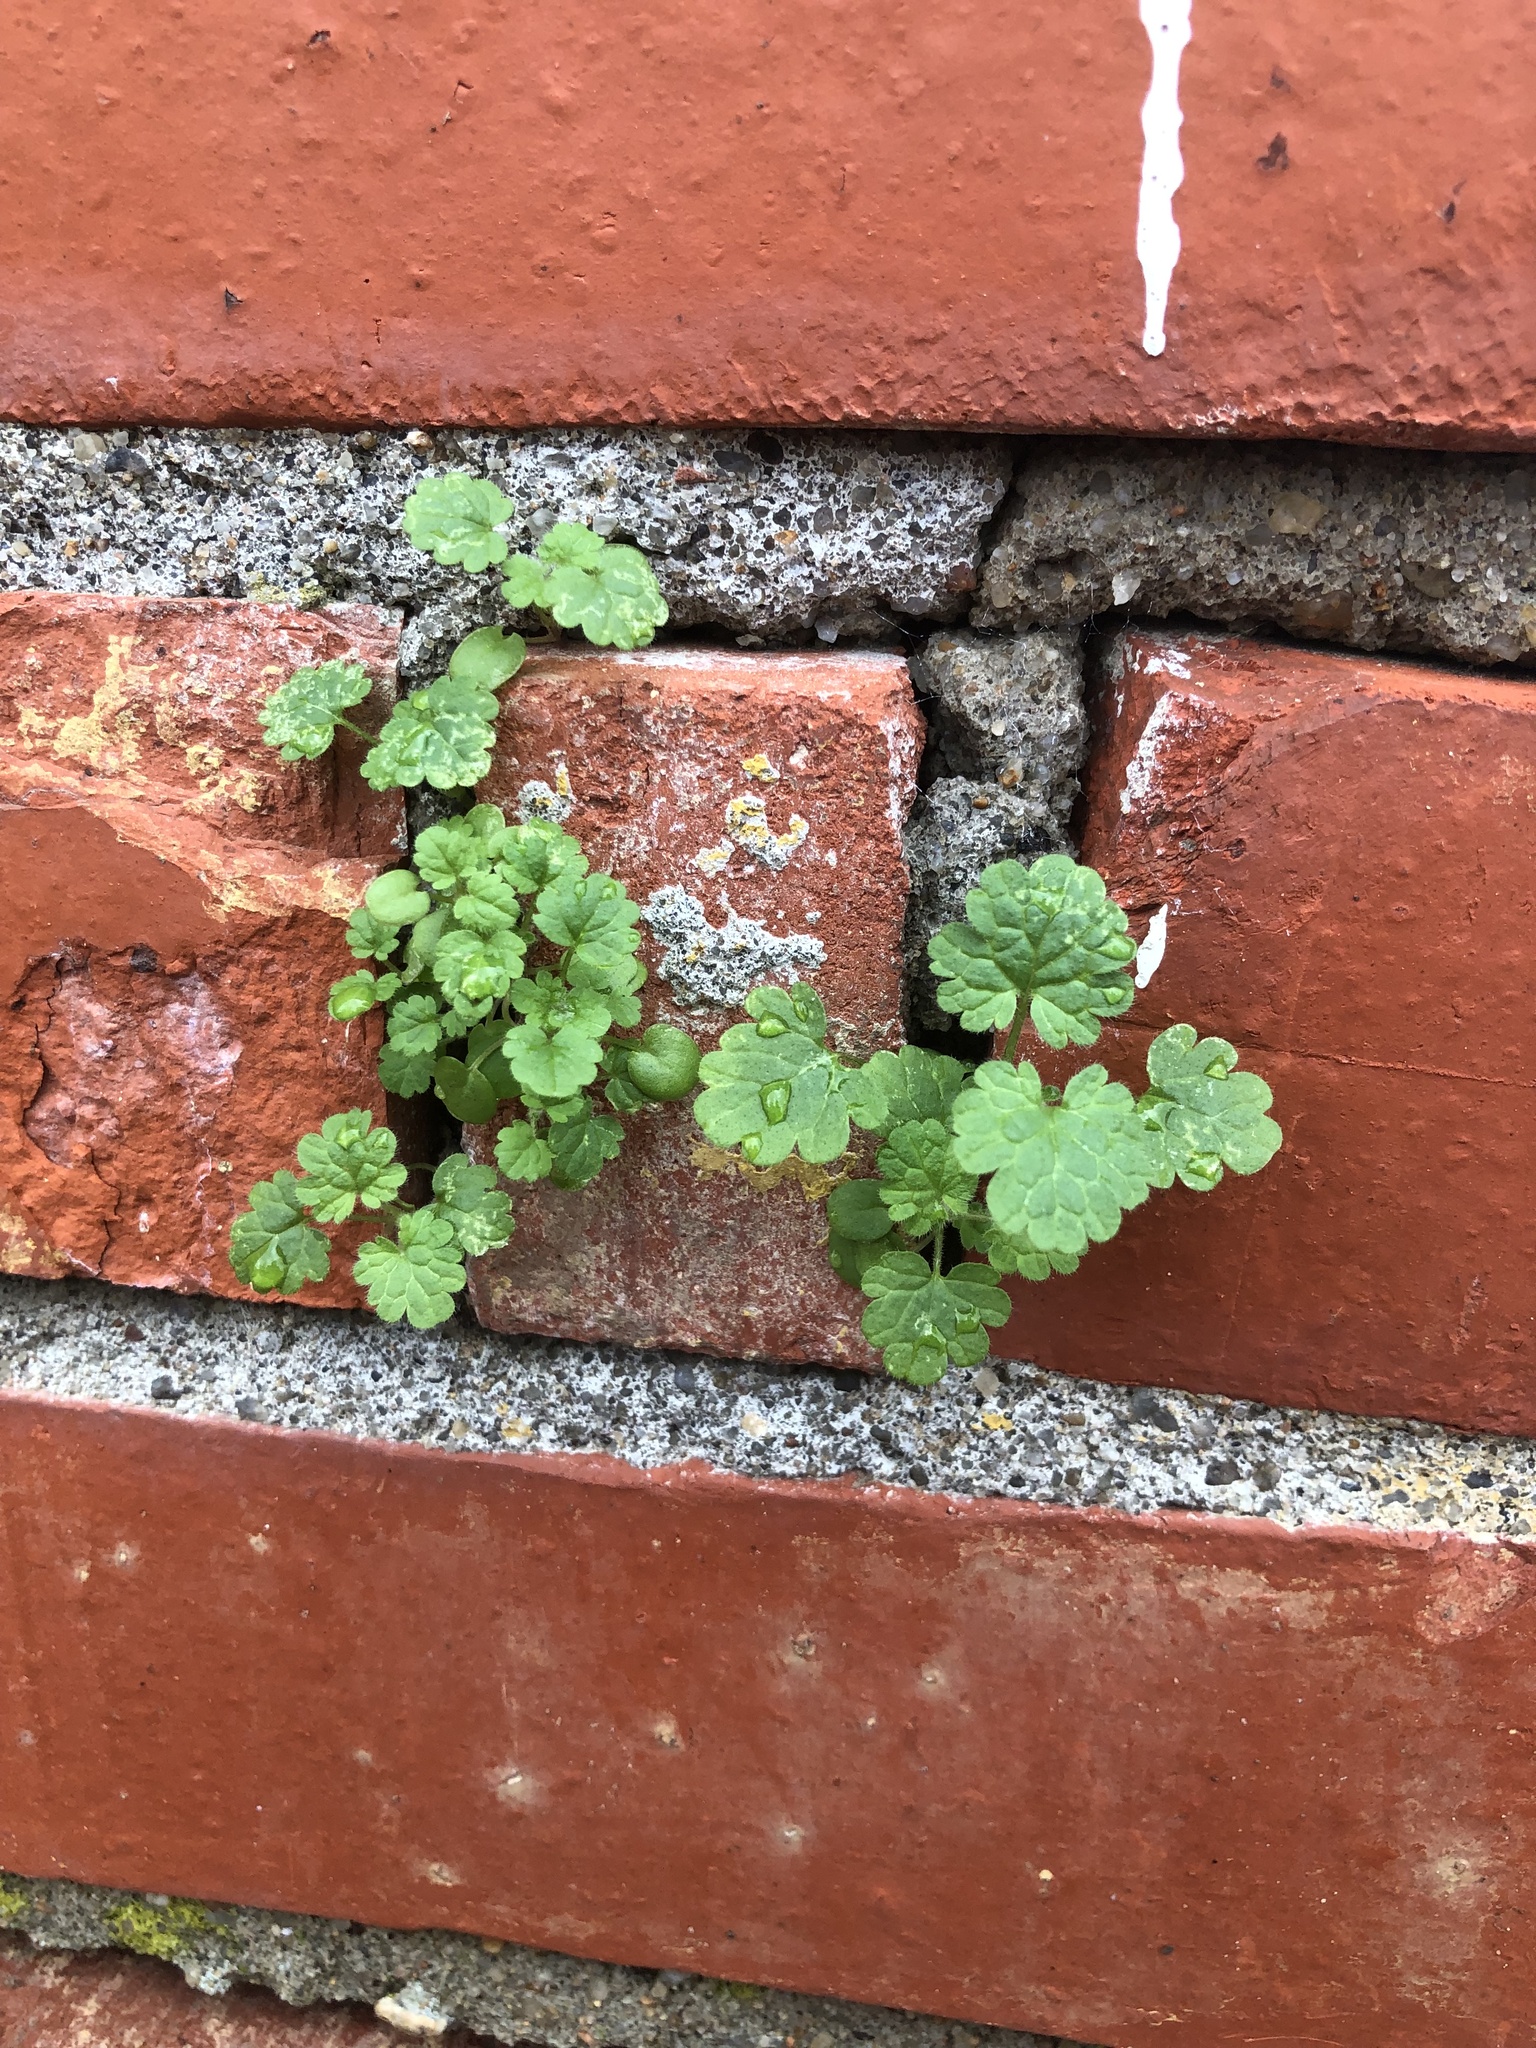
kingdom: Plantae
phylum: Tracheophyta
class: Magnoliopsida
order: Lamiales
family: Lamiaceae
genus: Lamium
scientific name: Lamium amplexicaule
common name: Henbit dead-nettle
